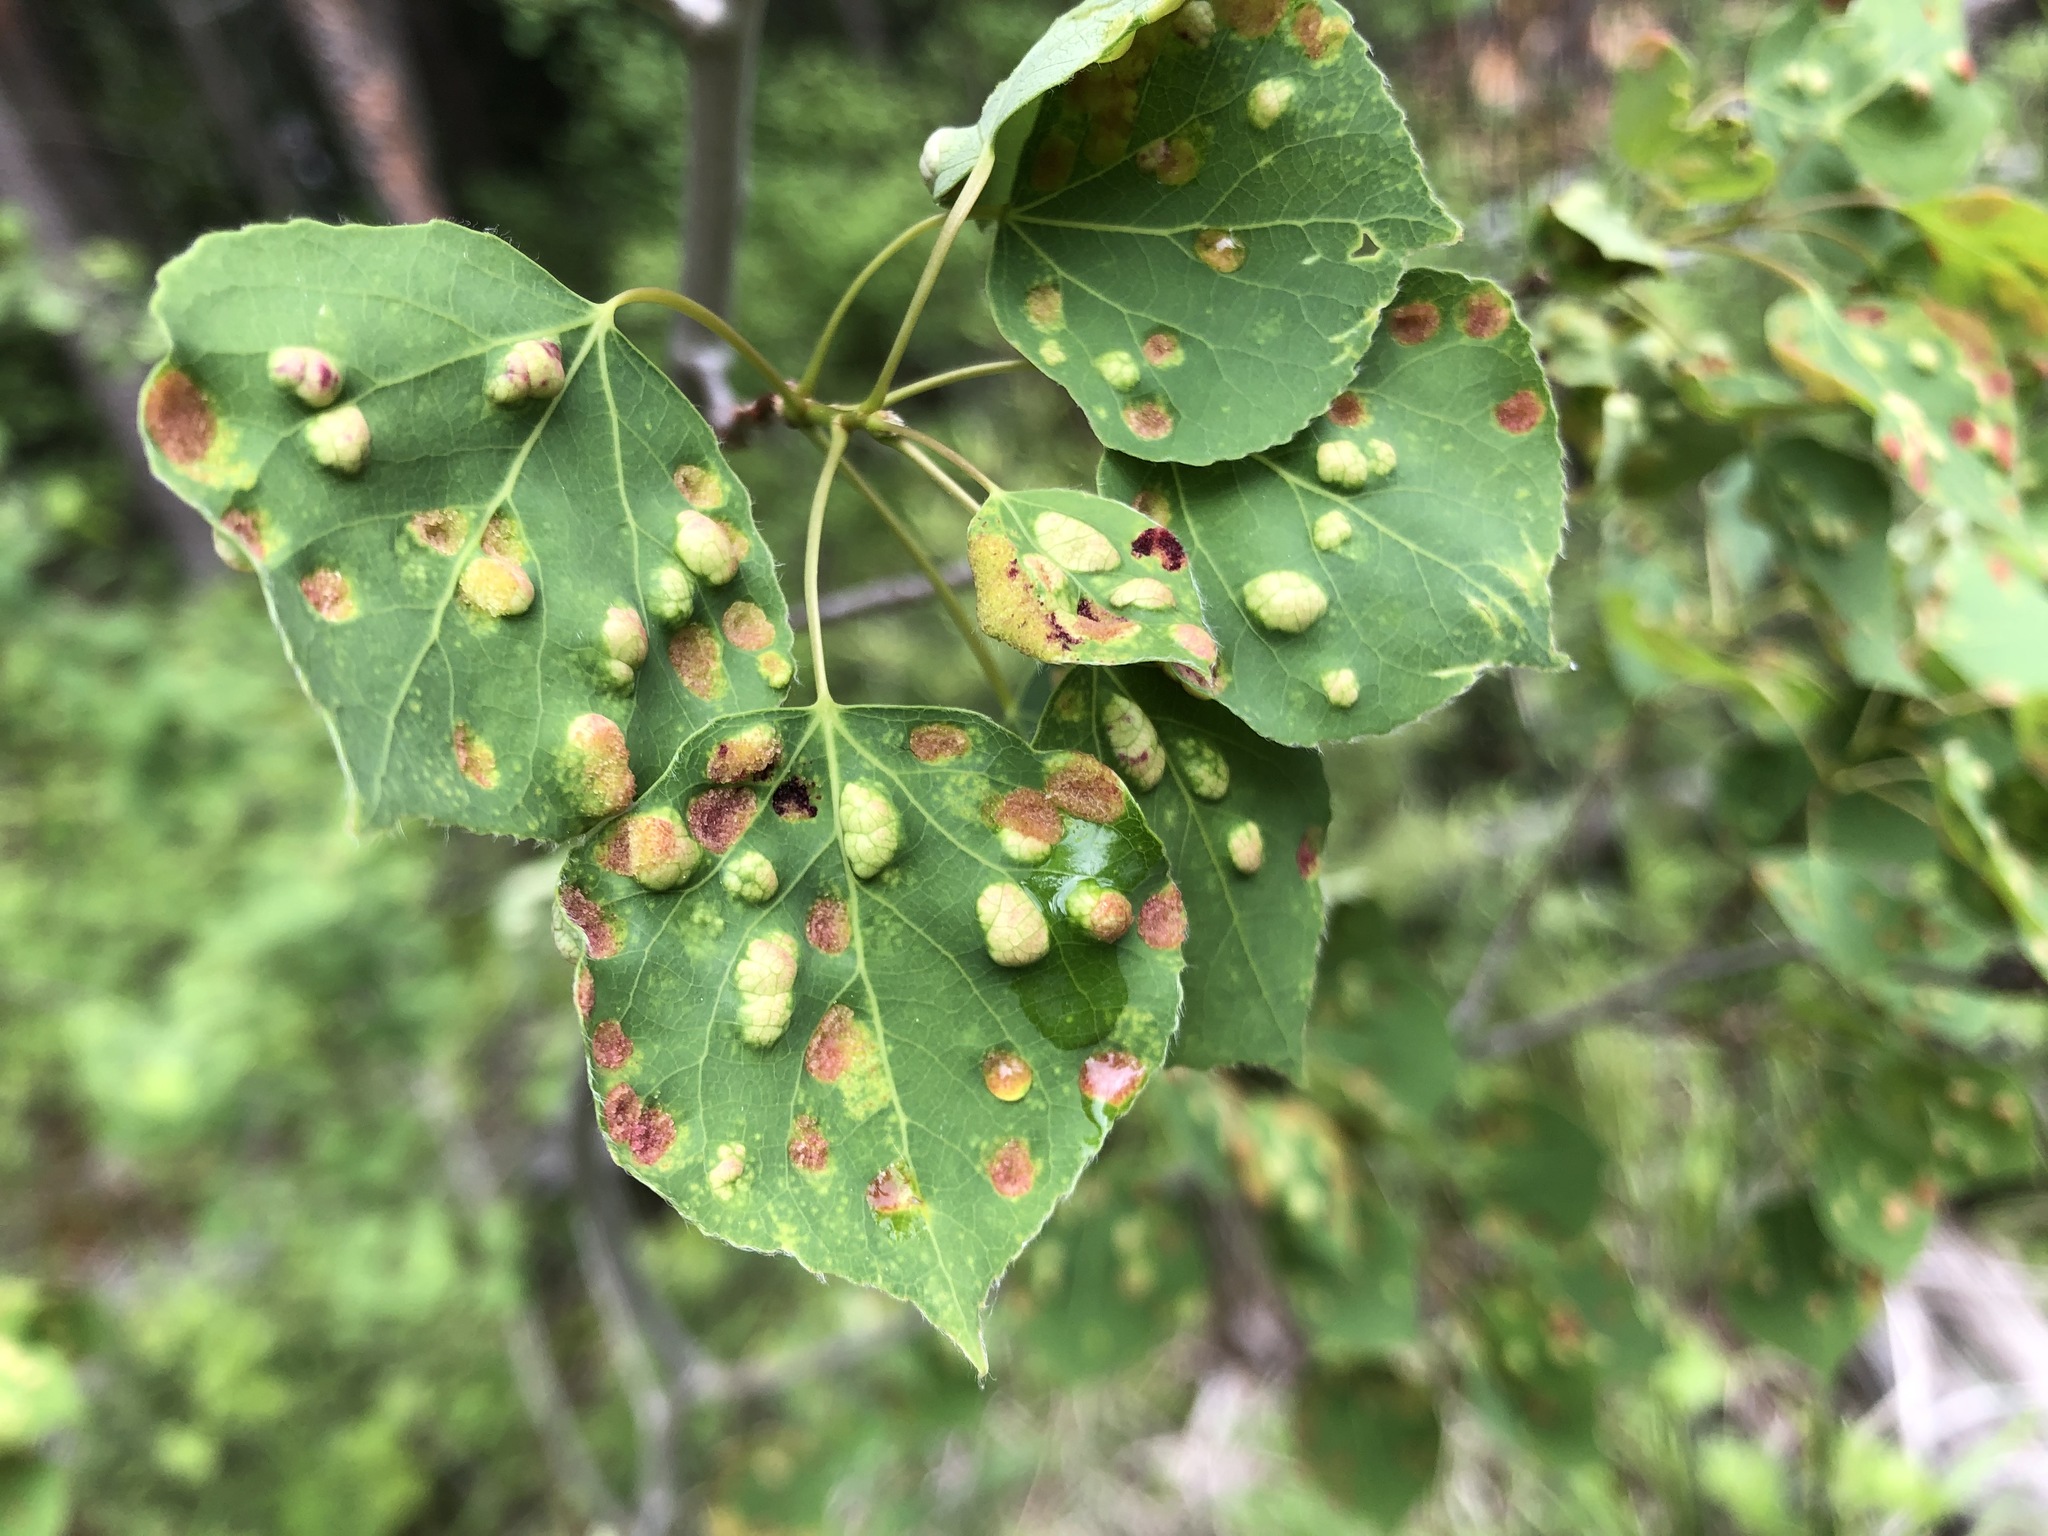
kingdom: Animalia
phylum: Arthropoda
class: Arachnida
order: Trombidiformes
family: Eriophyidae
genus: Phyllocoptes
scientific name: Phyllocoptes
